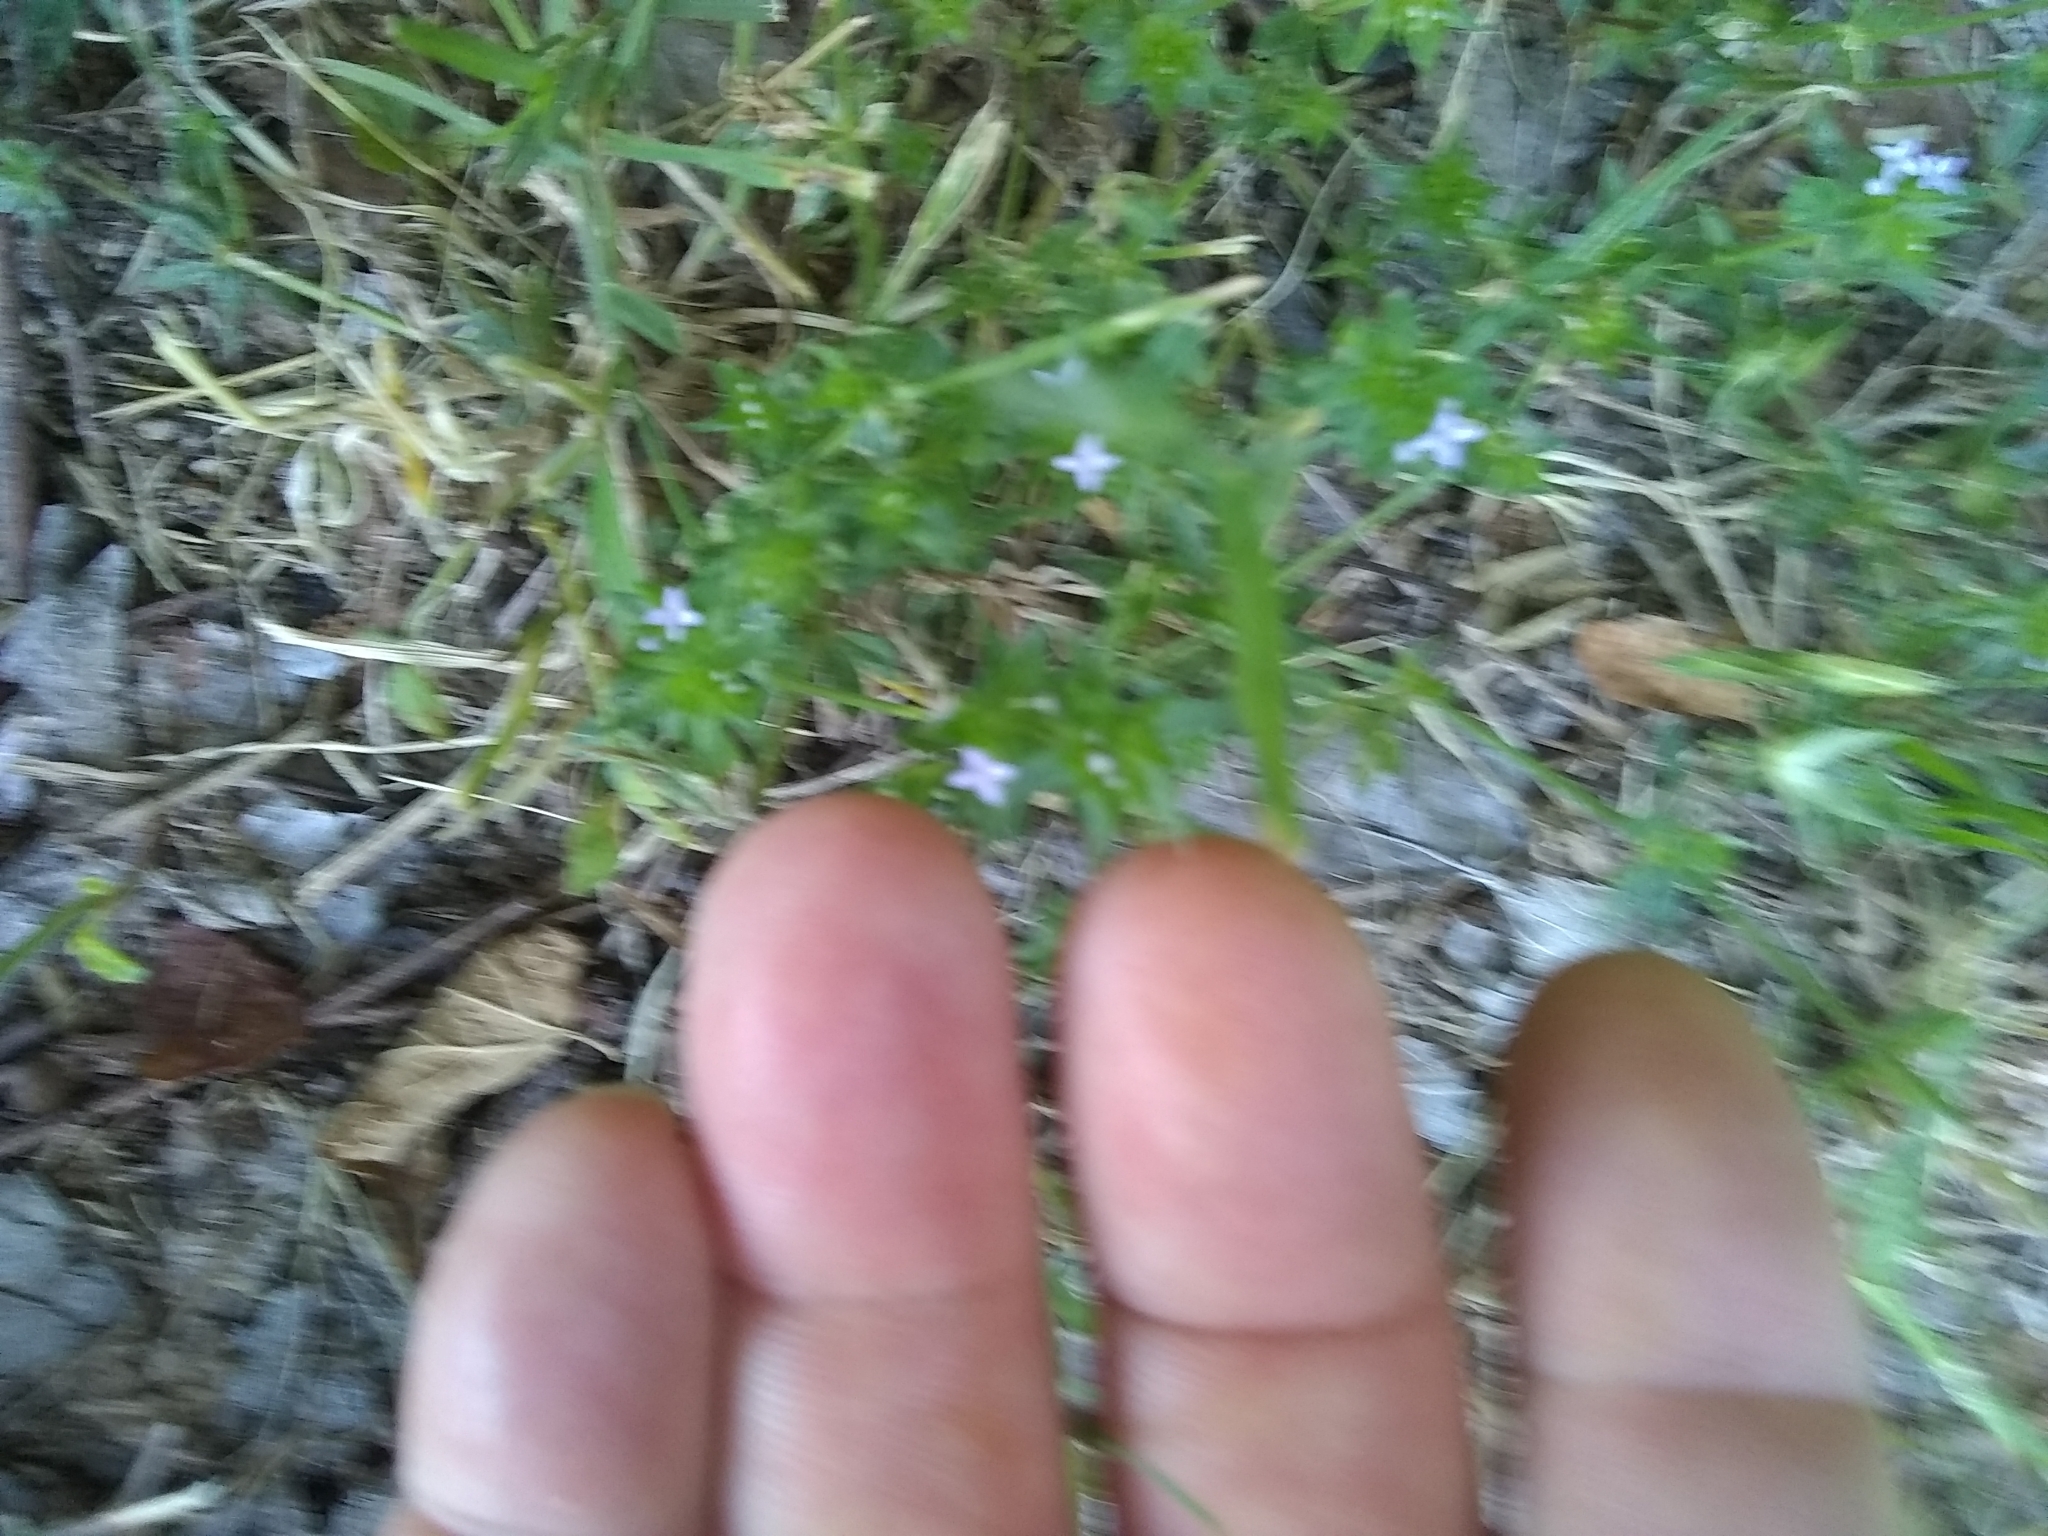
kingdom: Plantae
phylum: Tracheophyta
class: Magnoliopsida
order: Gentianales
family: Rubiaceae
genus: Sherardia
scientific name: Sherardia arvensis
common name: Field madder
